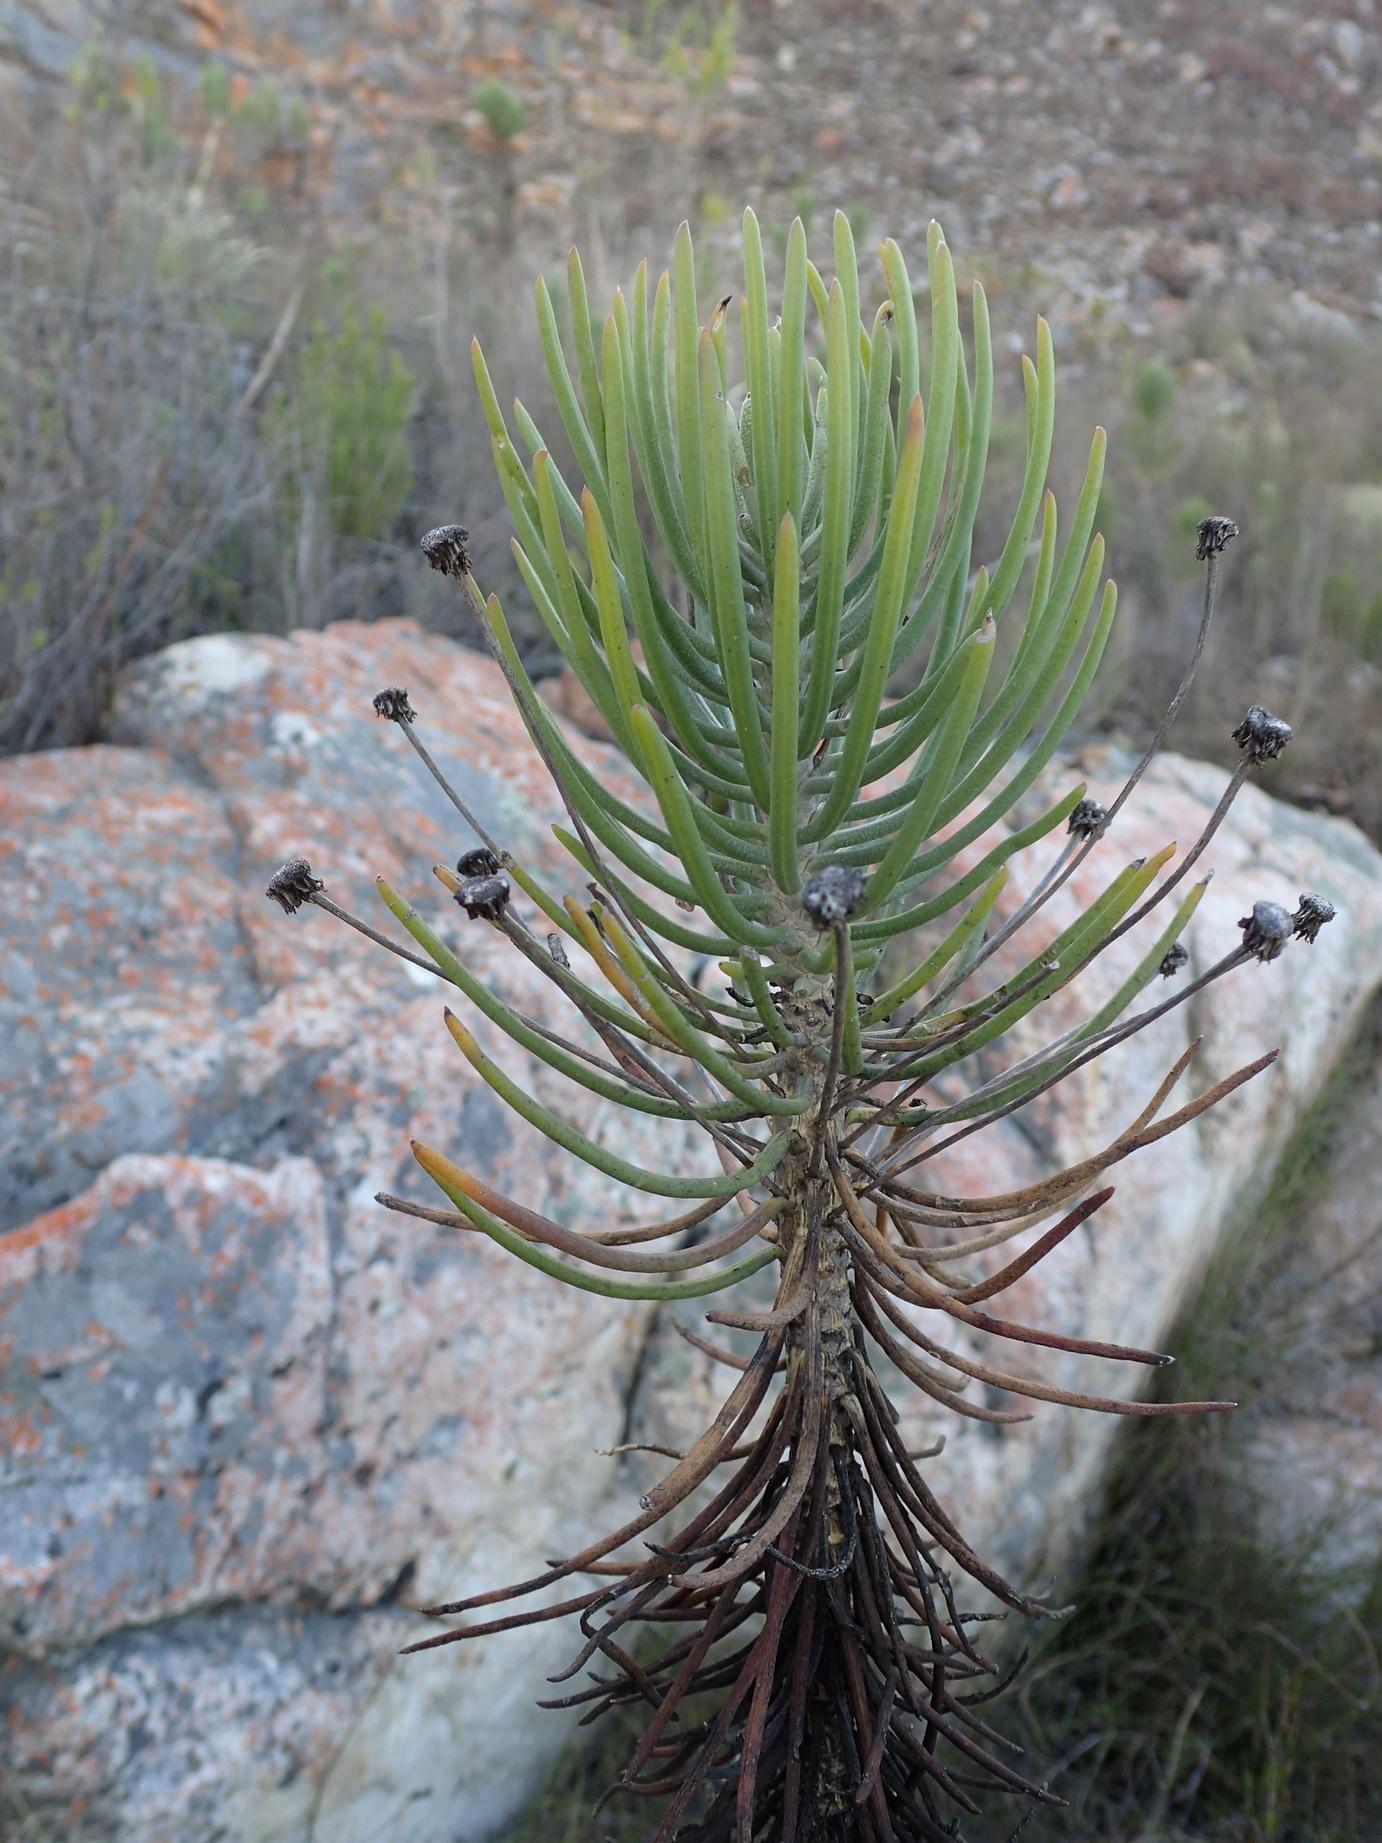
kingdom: Plantae
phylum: Tracheophyta
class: Magnoliopsida
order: Asterales
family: Asteraceae
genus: Euryops
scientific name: Euryops rehmannii
